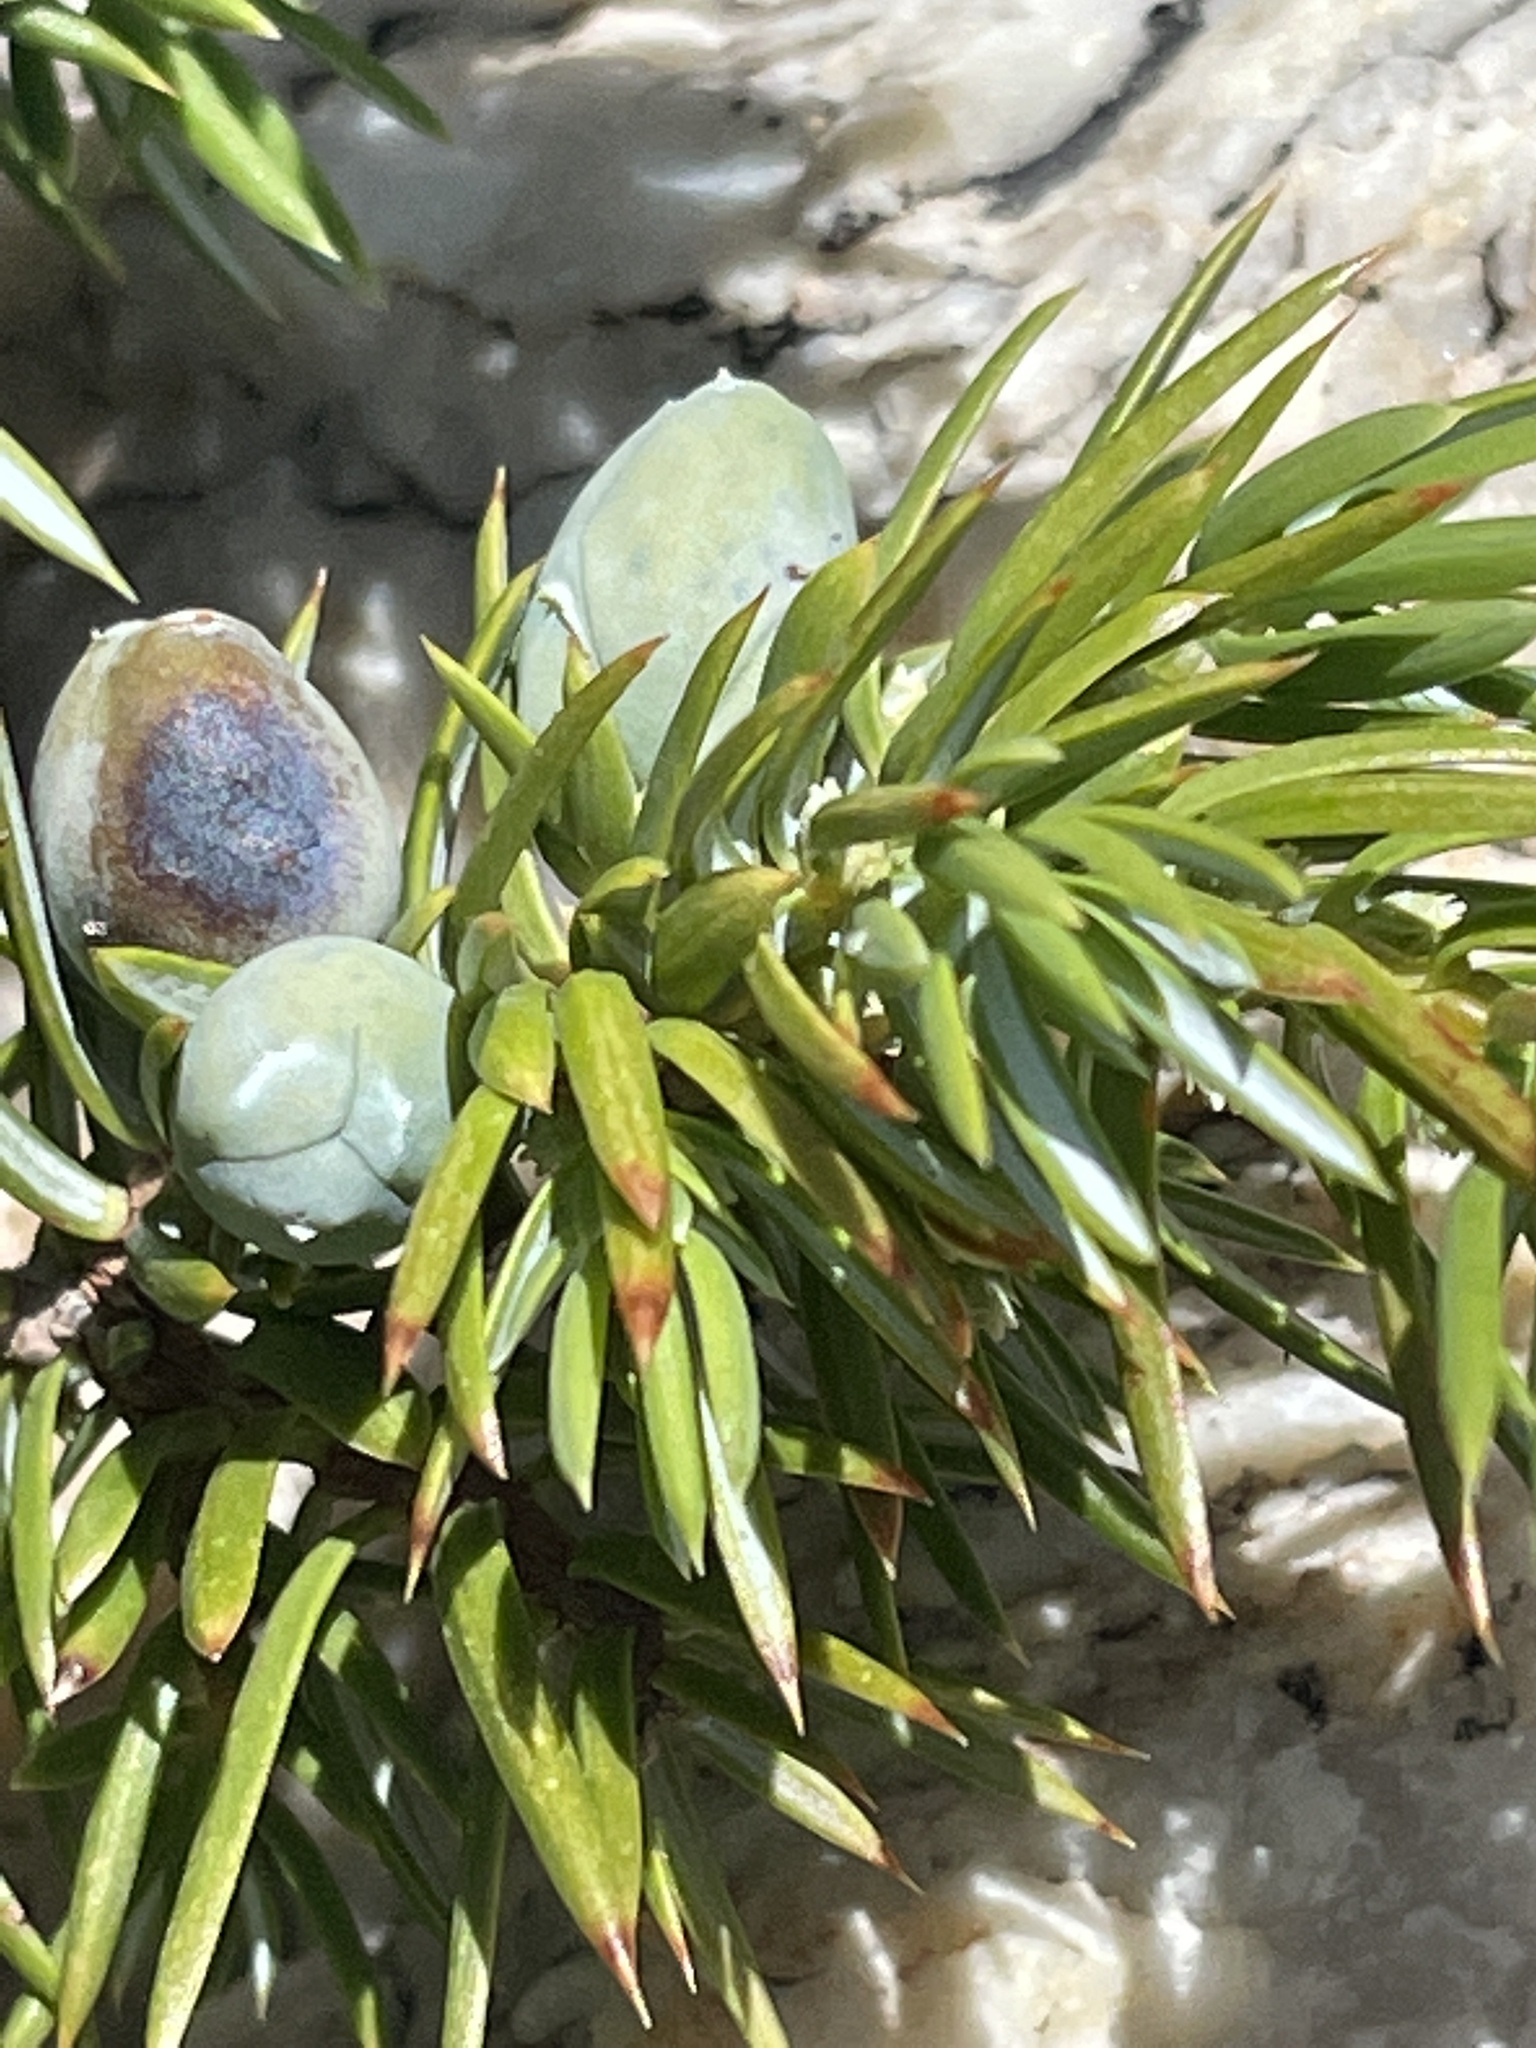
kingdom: Plantae
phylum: Tracheophyta
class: Pinopsida
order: Pinales
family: Cupressaceae
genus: Juniperus
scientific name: Juniperus communis
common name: Common juniper
